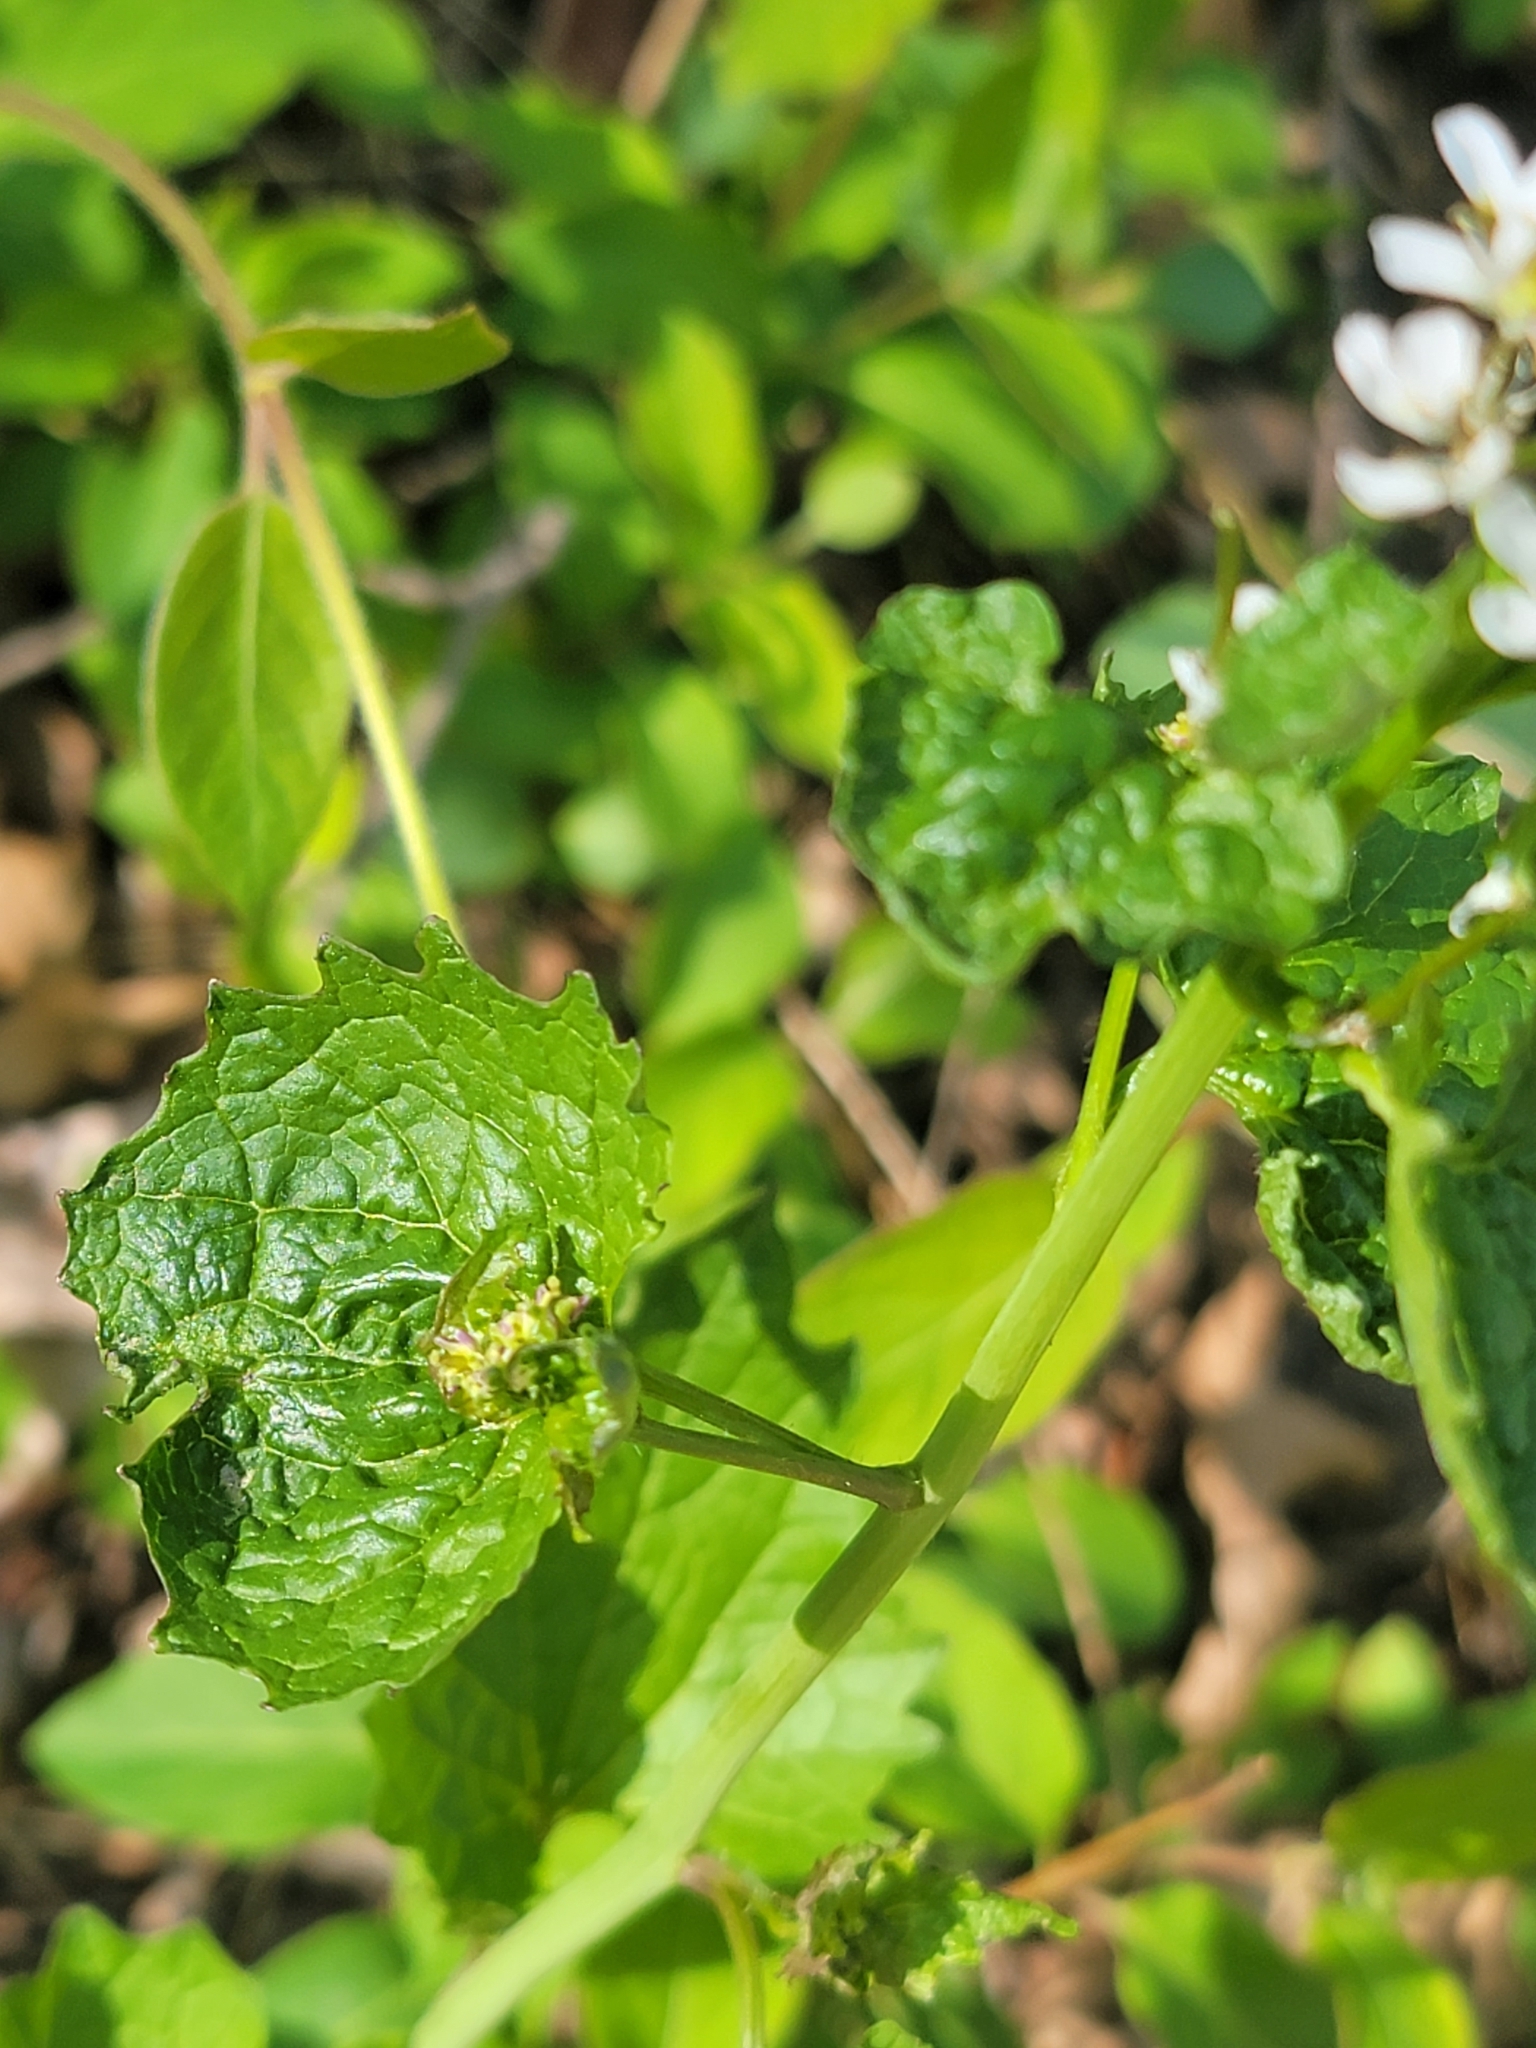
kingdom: Viruses
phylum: Kitrinoviricota
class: Tolucaviricetes
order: Tolivirales
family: Tombusviridae
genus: Betacarmovirus
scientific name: Betacarmovirus brassicae
